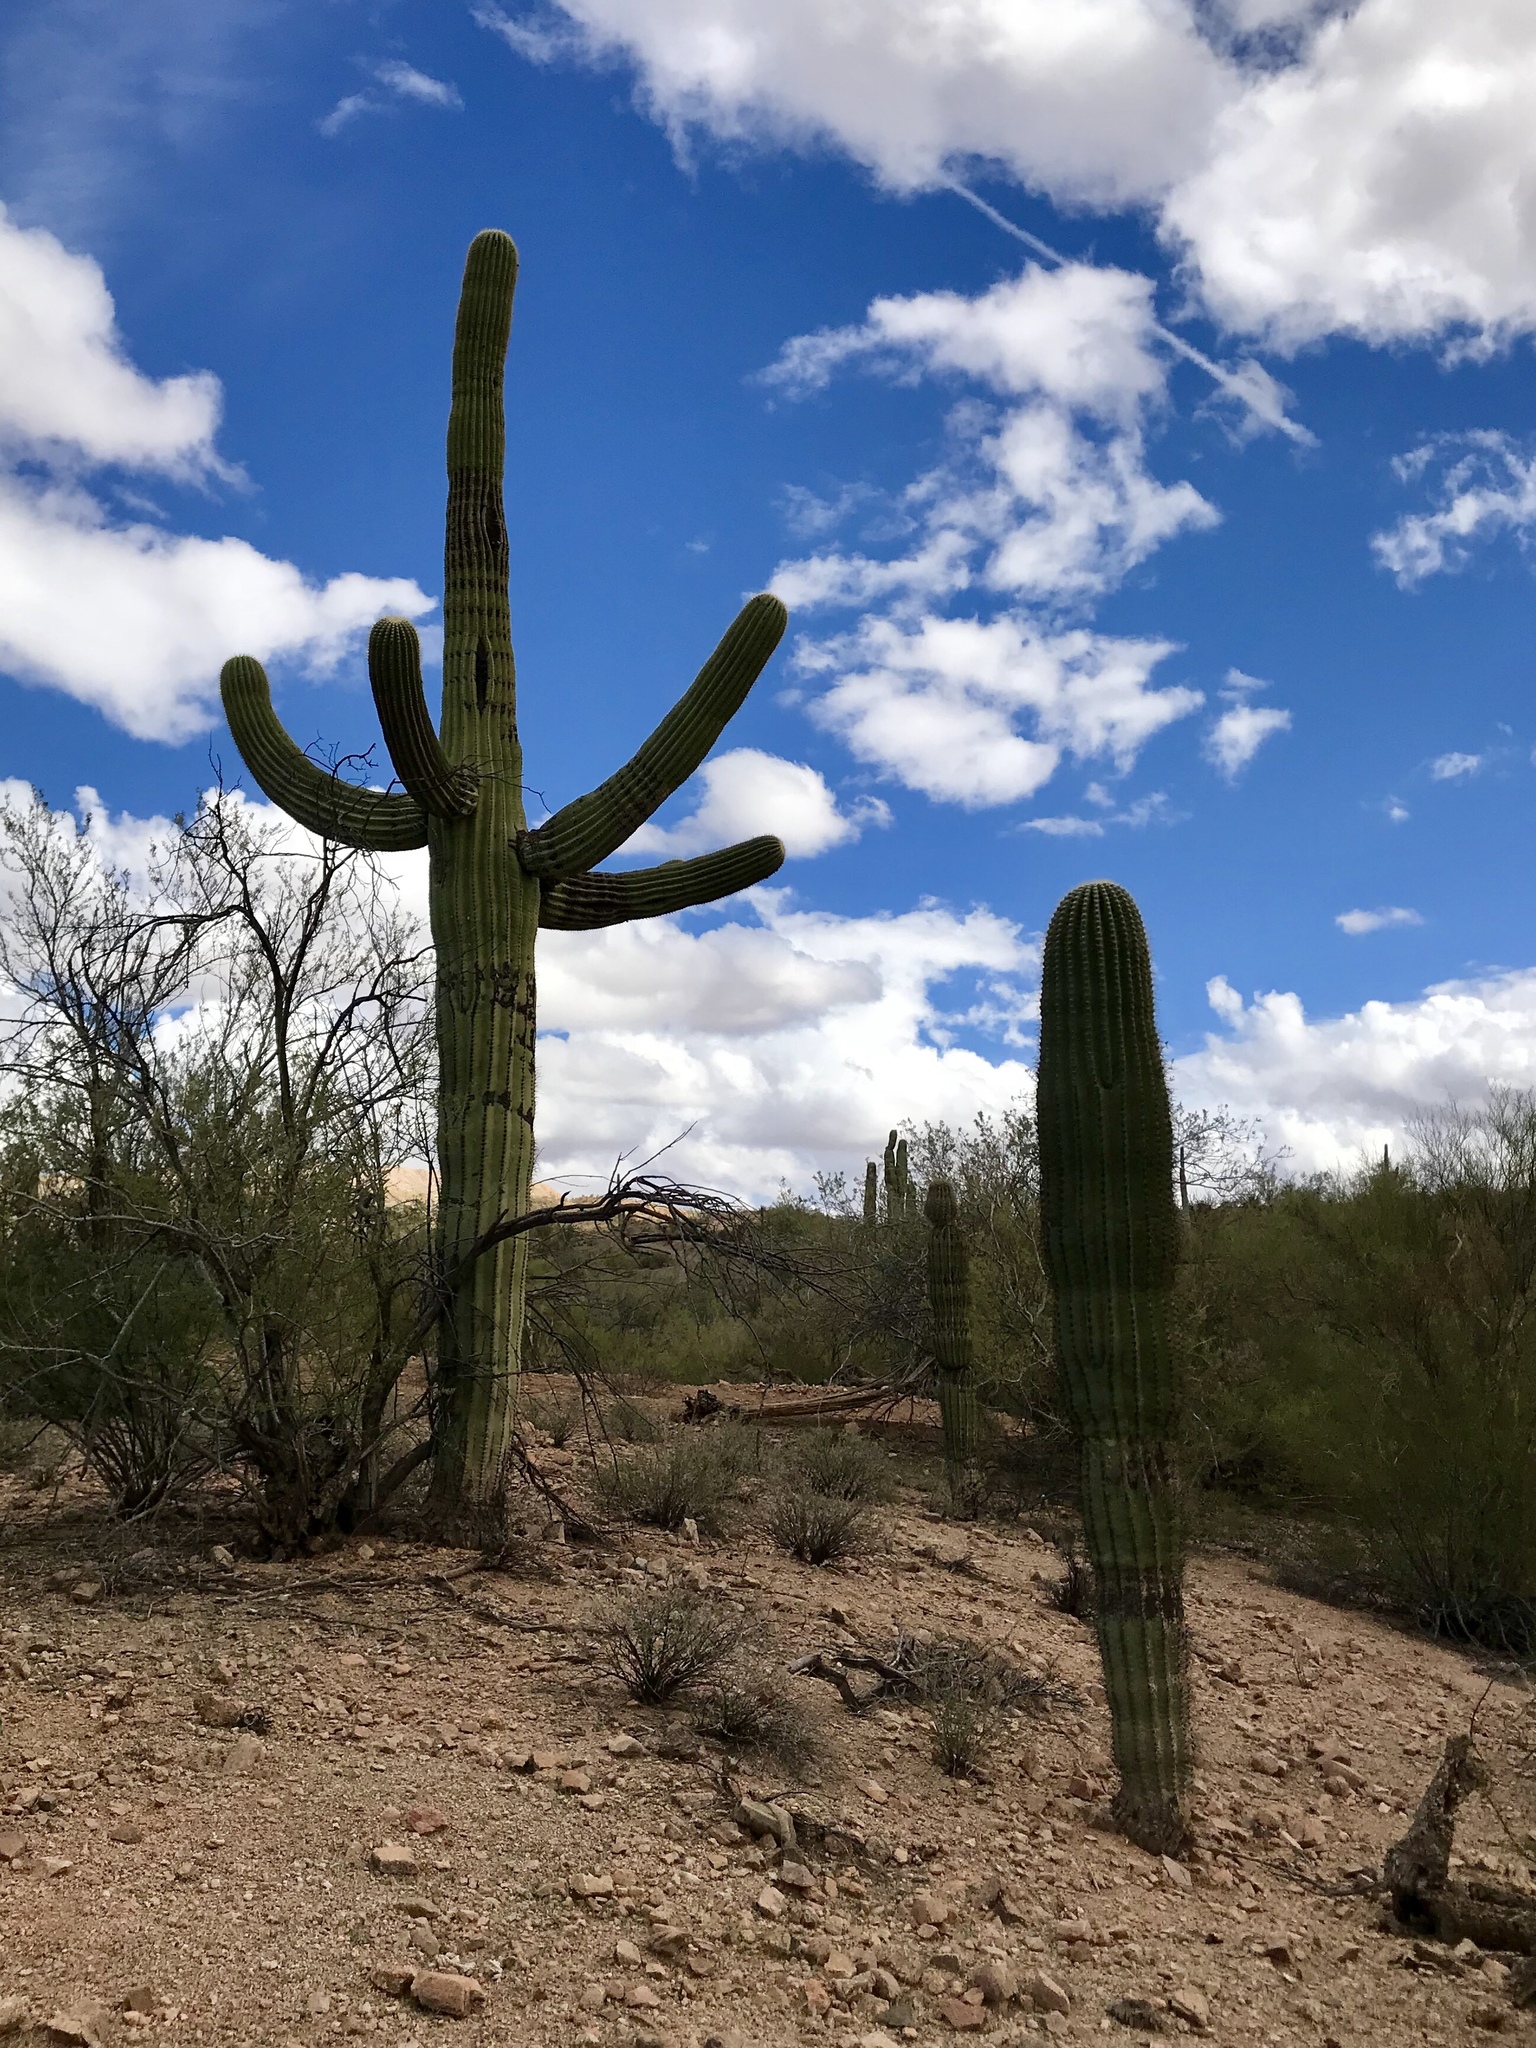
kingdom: Plantae
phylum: Tracheophyta
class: Magnoliopsida
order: Caryophyllales
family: Cactaceae
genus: Carnegiea
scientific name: Carnegiea gigantea
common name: Saguaro
